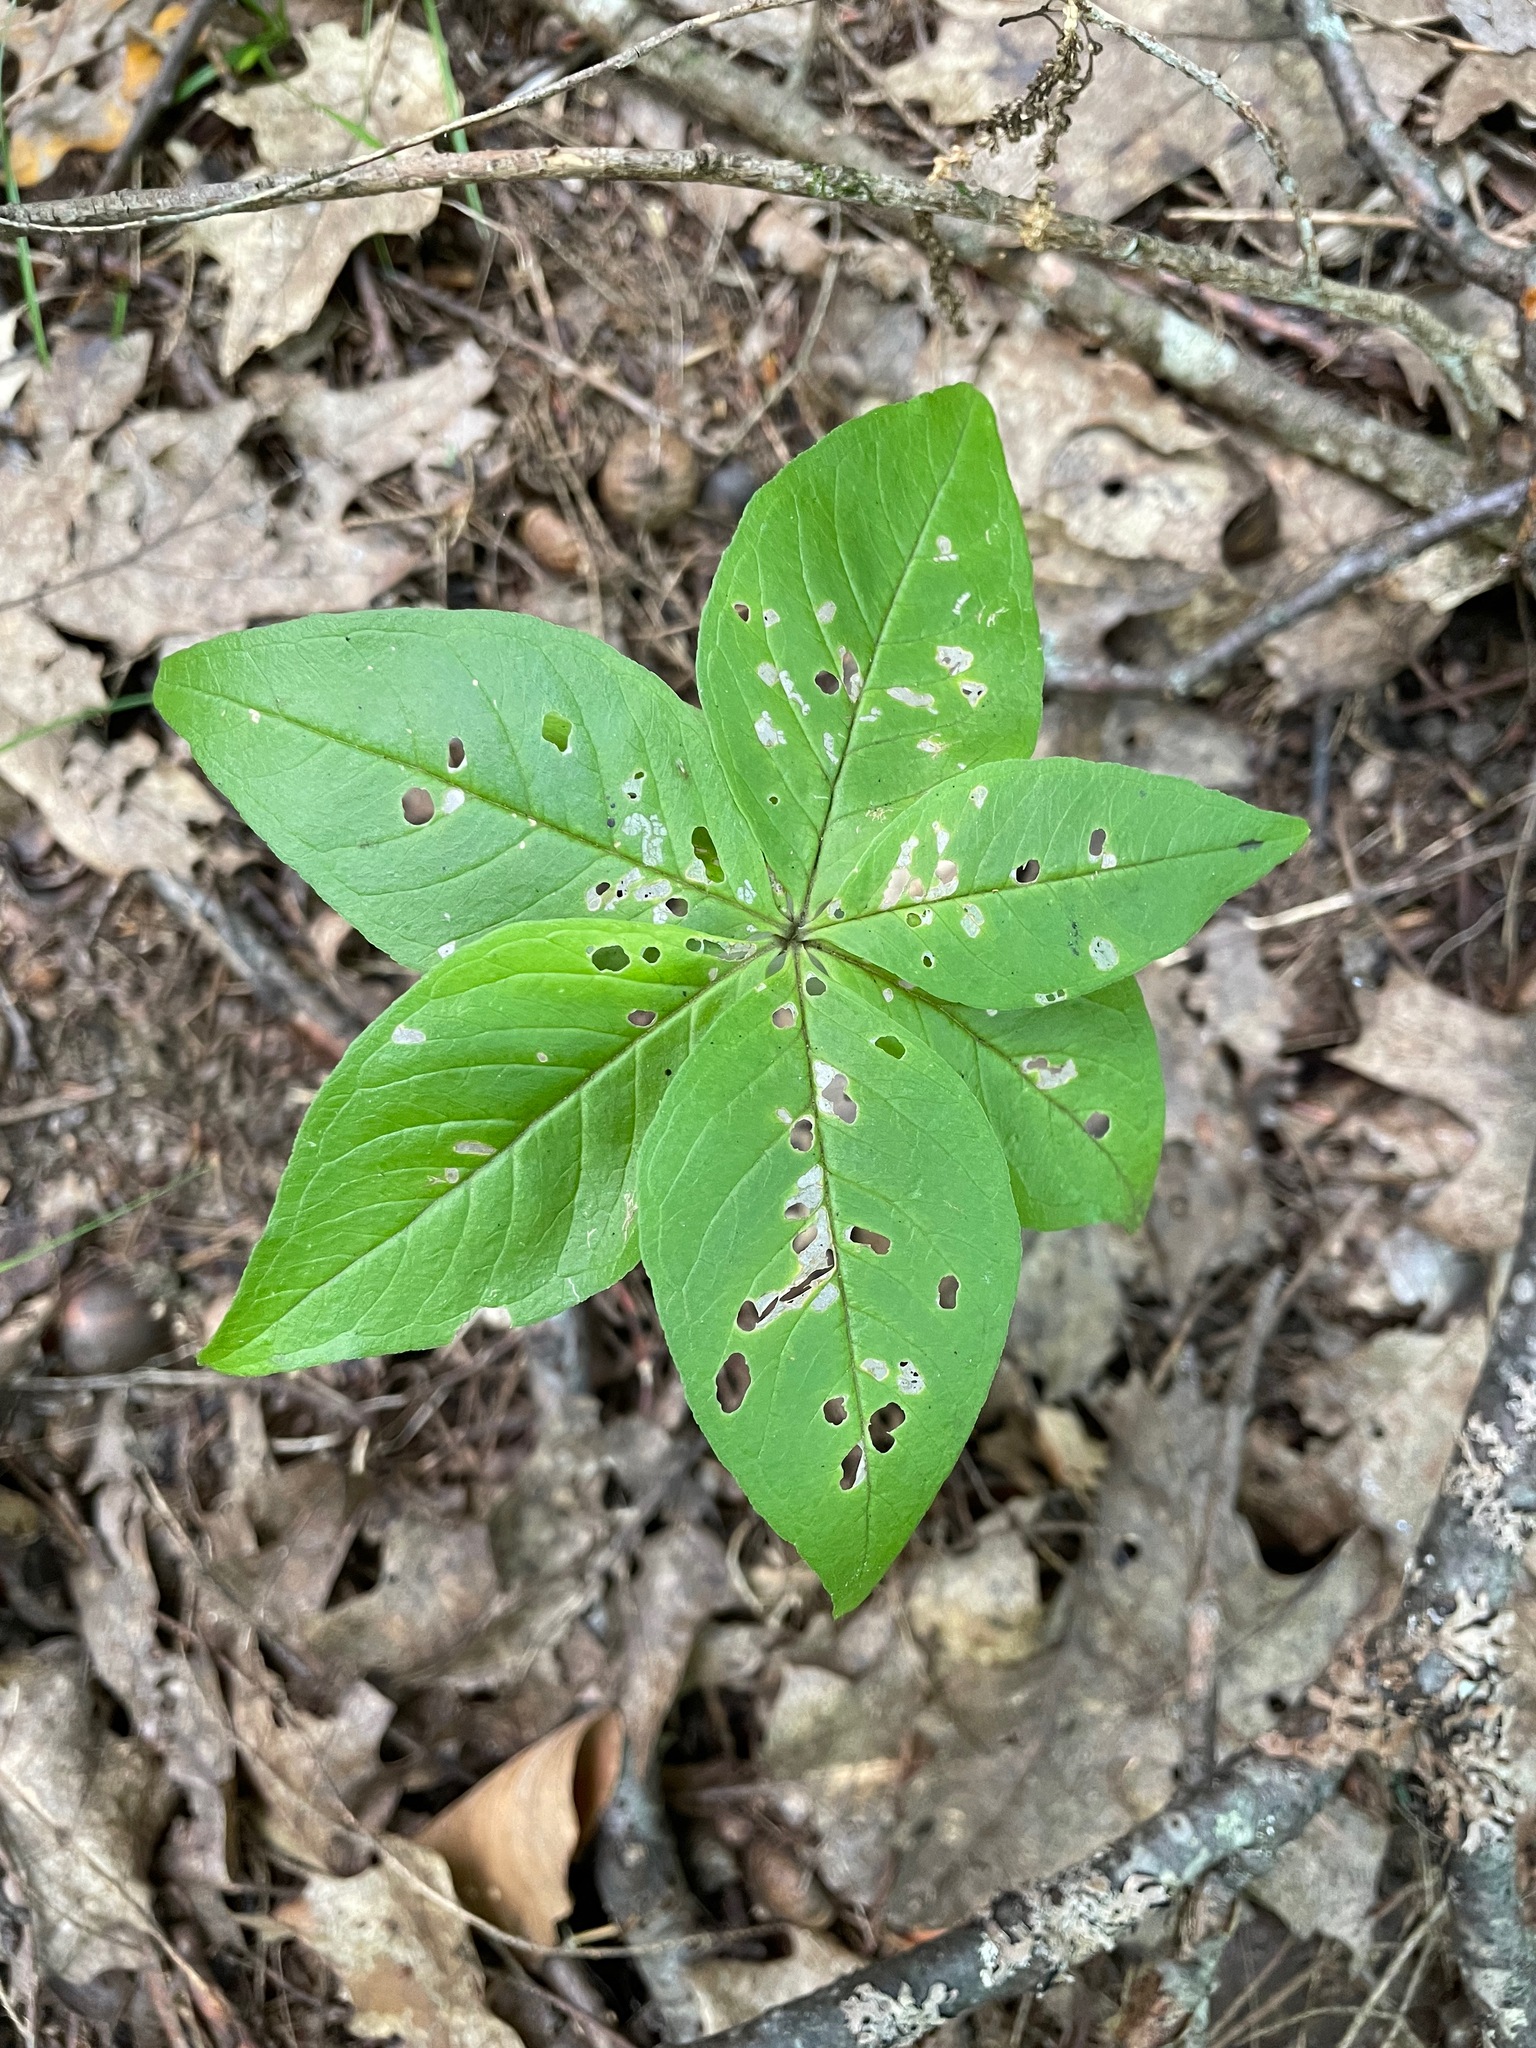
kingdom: Plantae
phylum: Tracheophyta
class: Magnoliopsida
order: Ericales
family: Primulaceae
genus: Lysimachia
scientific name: Lysimachia borealis
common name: American starflower
